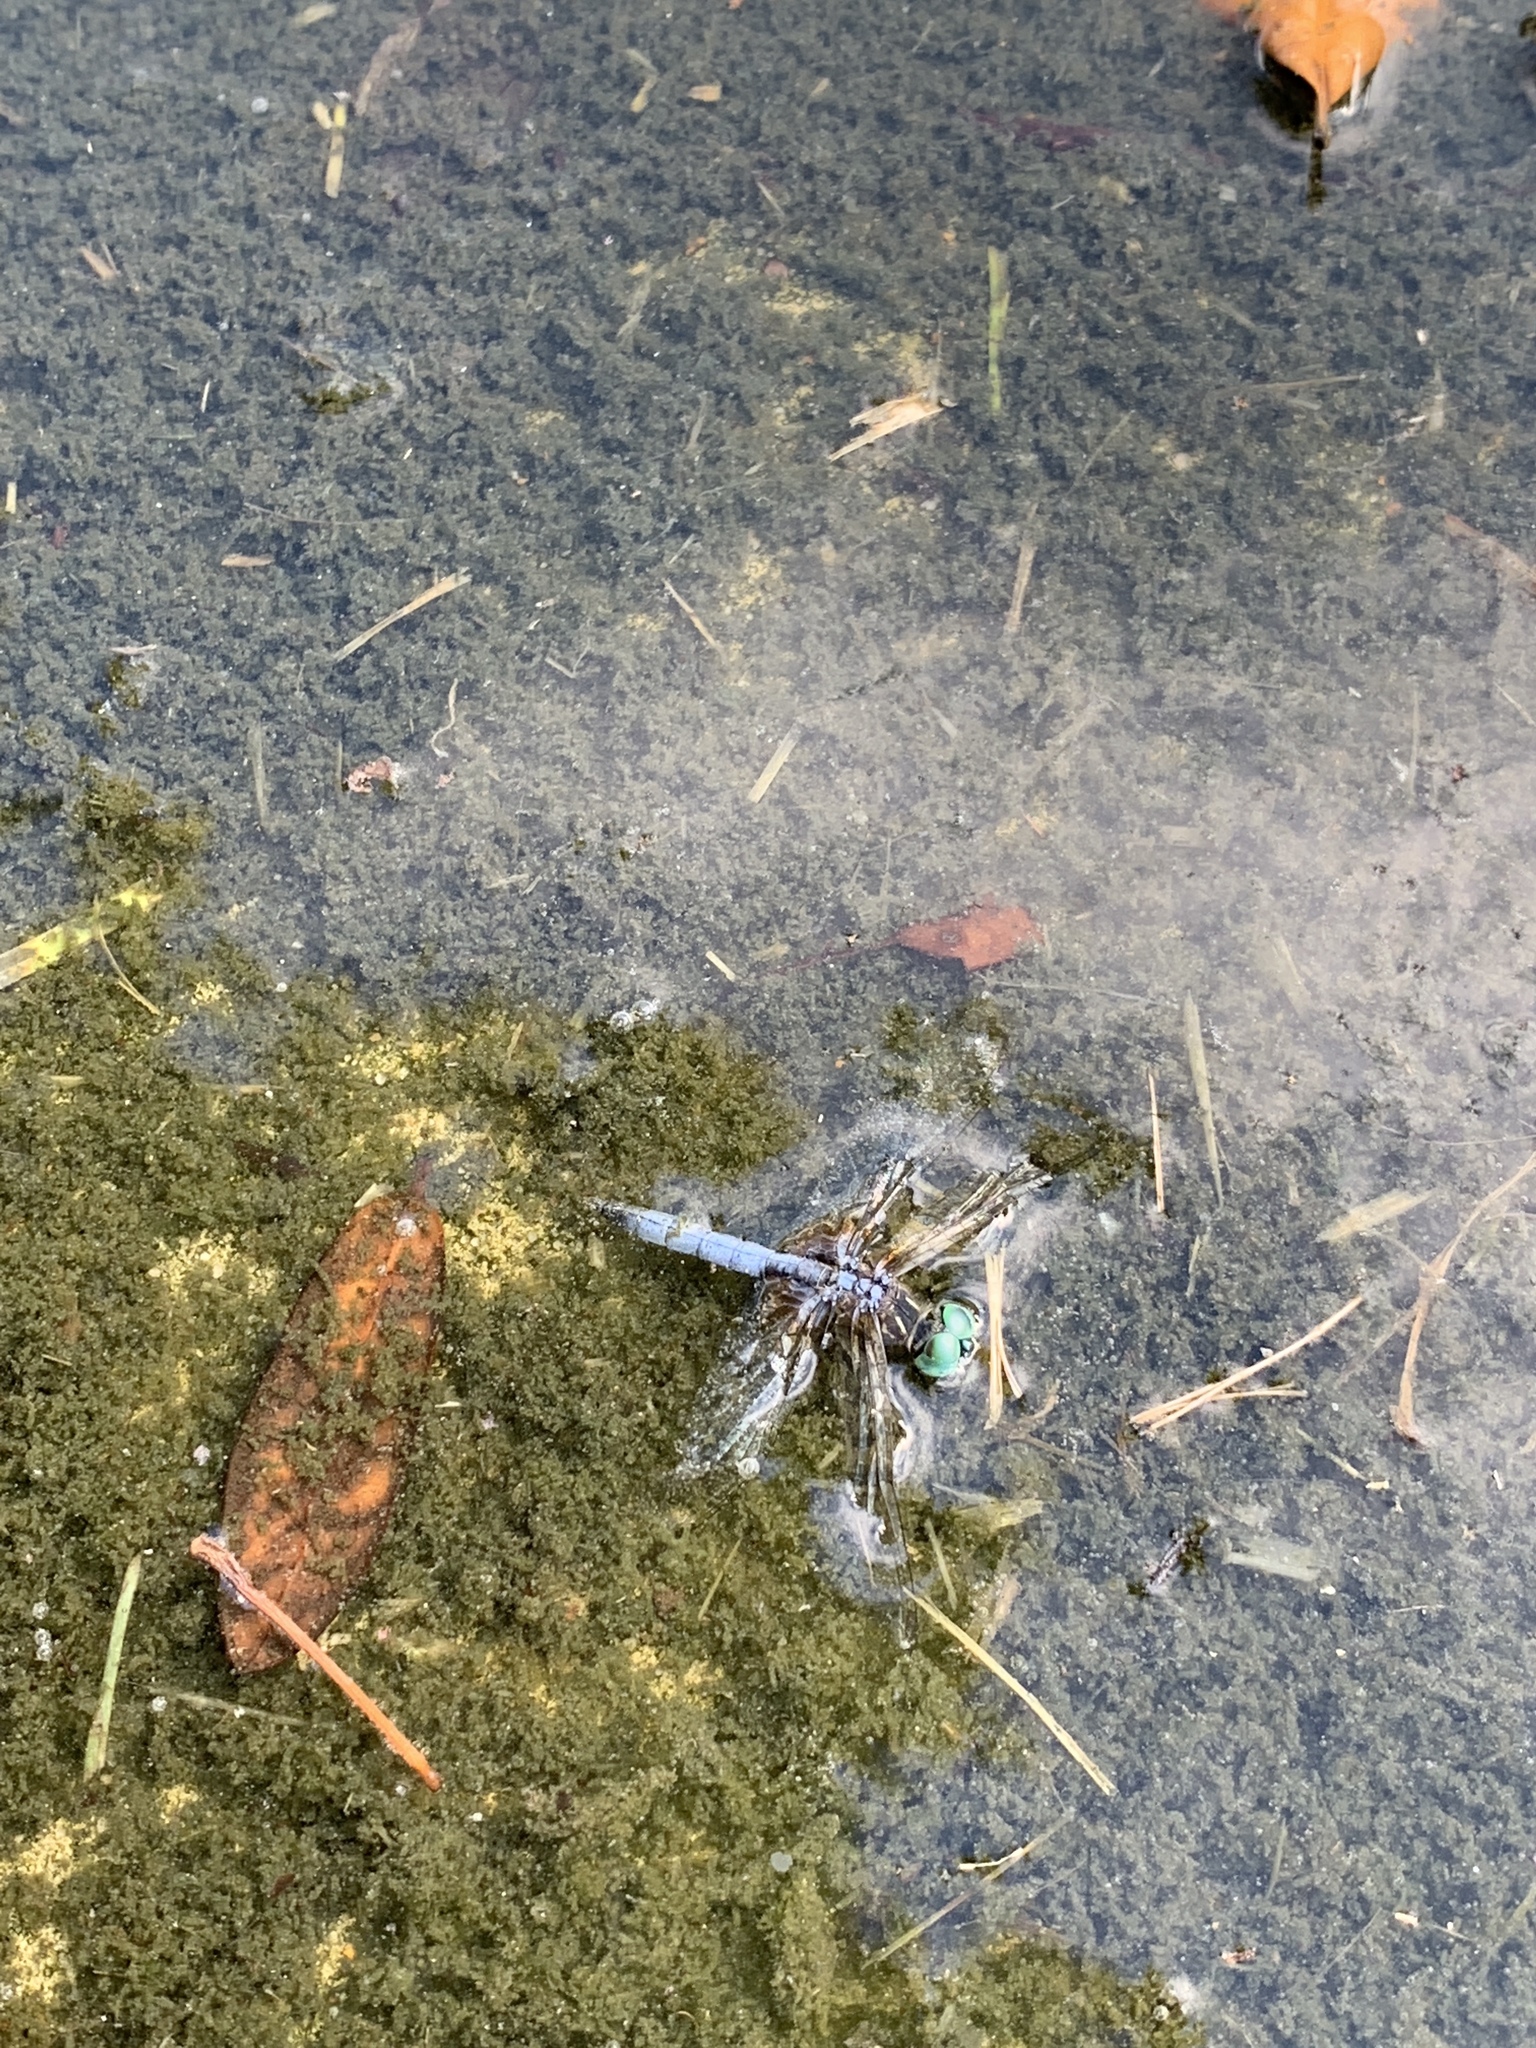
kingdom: Animalia
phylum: Arthropoda
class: Insecta
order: Odonata
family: Libellulidae
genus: Pachydiplax
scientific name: Pachydiplax longipennis
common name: Blue dasher
